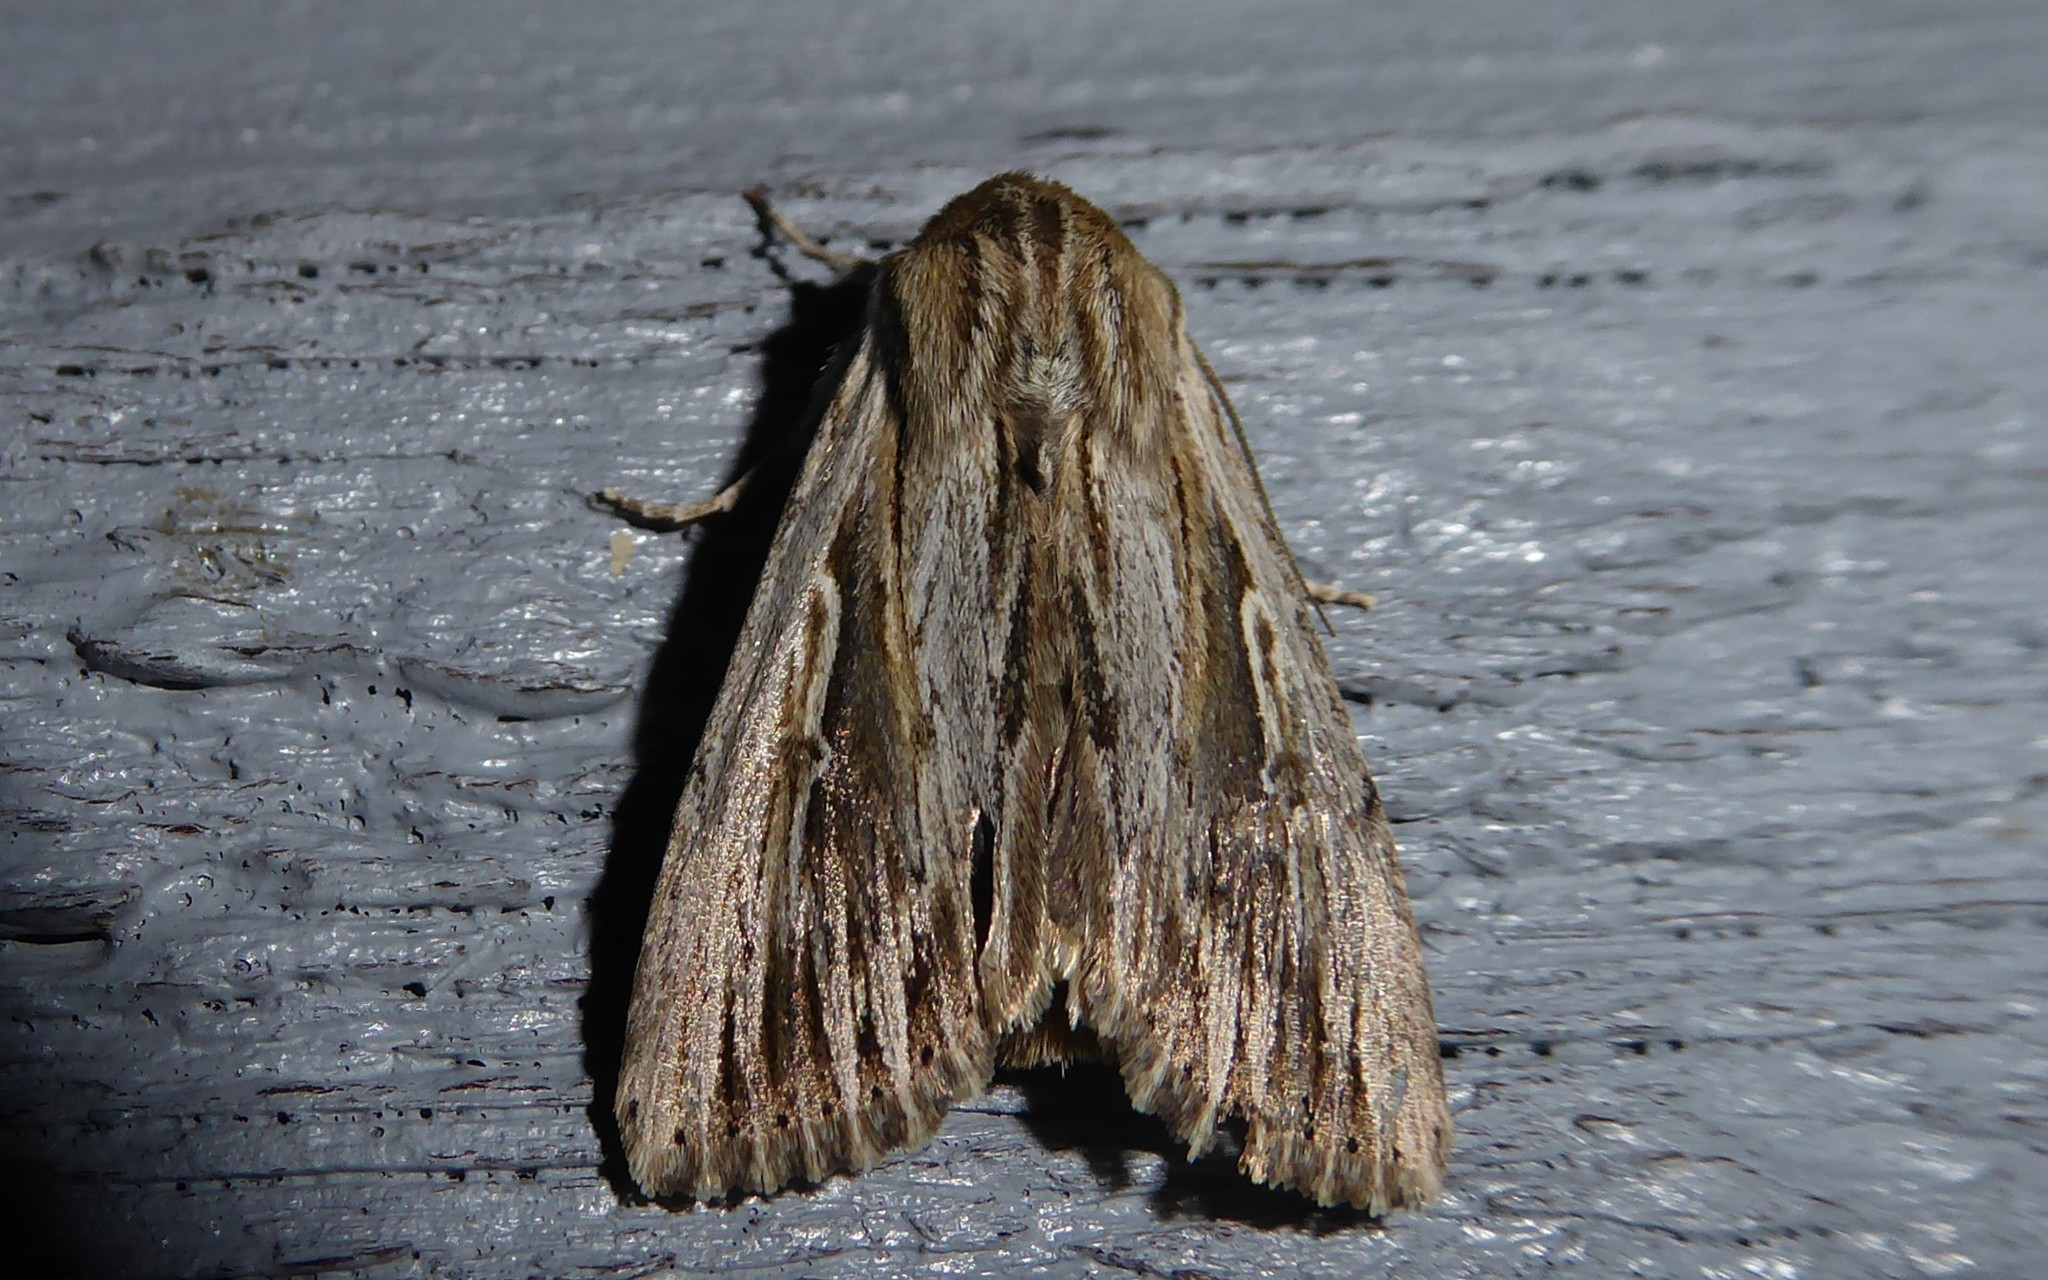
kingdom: Animalia
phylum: Arthropoda
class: Insecta
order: Lepidoptera
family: Noctuidae
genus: Persectania
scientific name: Persectania aversa
